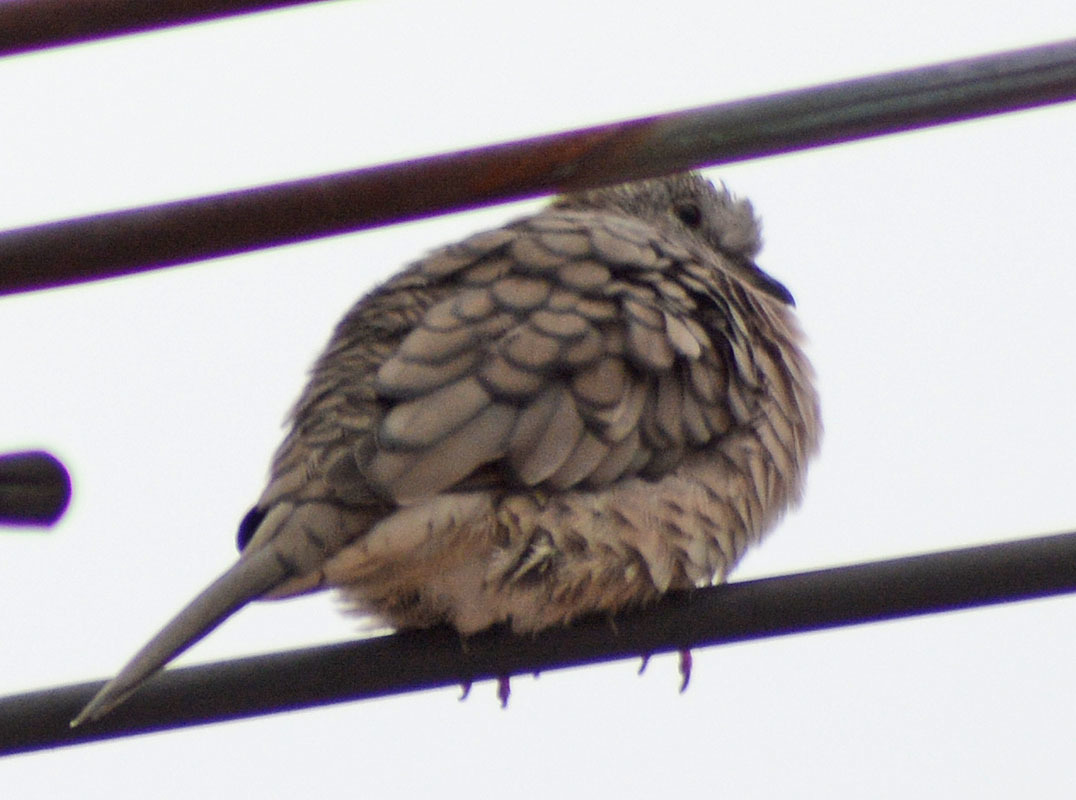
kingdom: Animalia
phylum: Chordata
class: Aves
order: Columbiformes
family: Columbidae
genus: Columbina
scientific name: Columbina inca
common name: Inca dove
